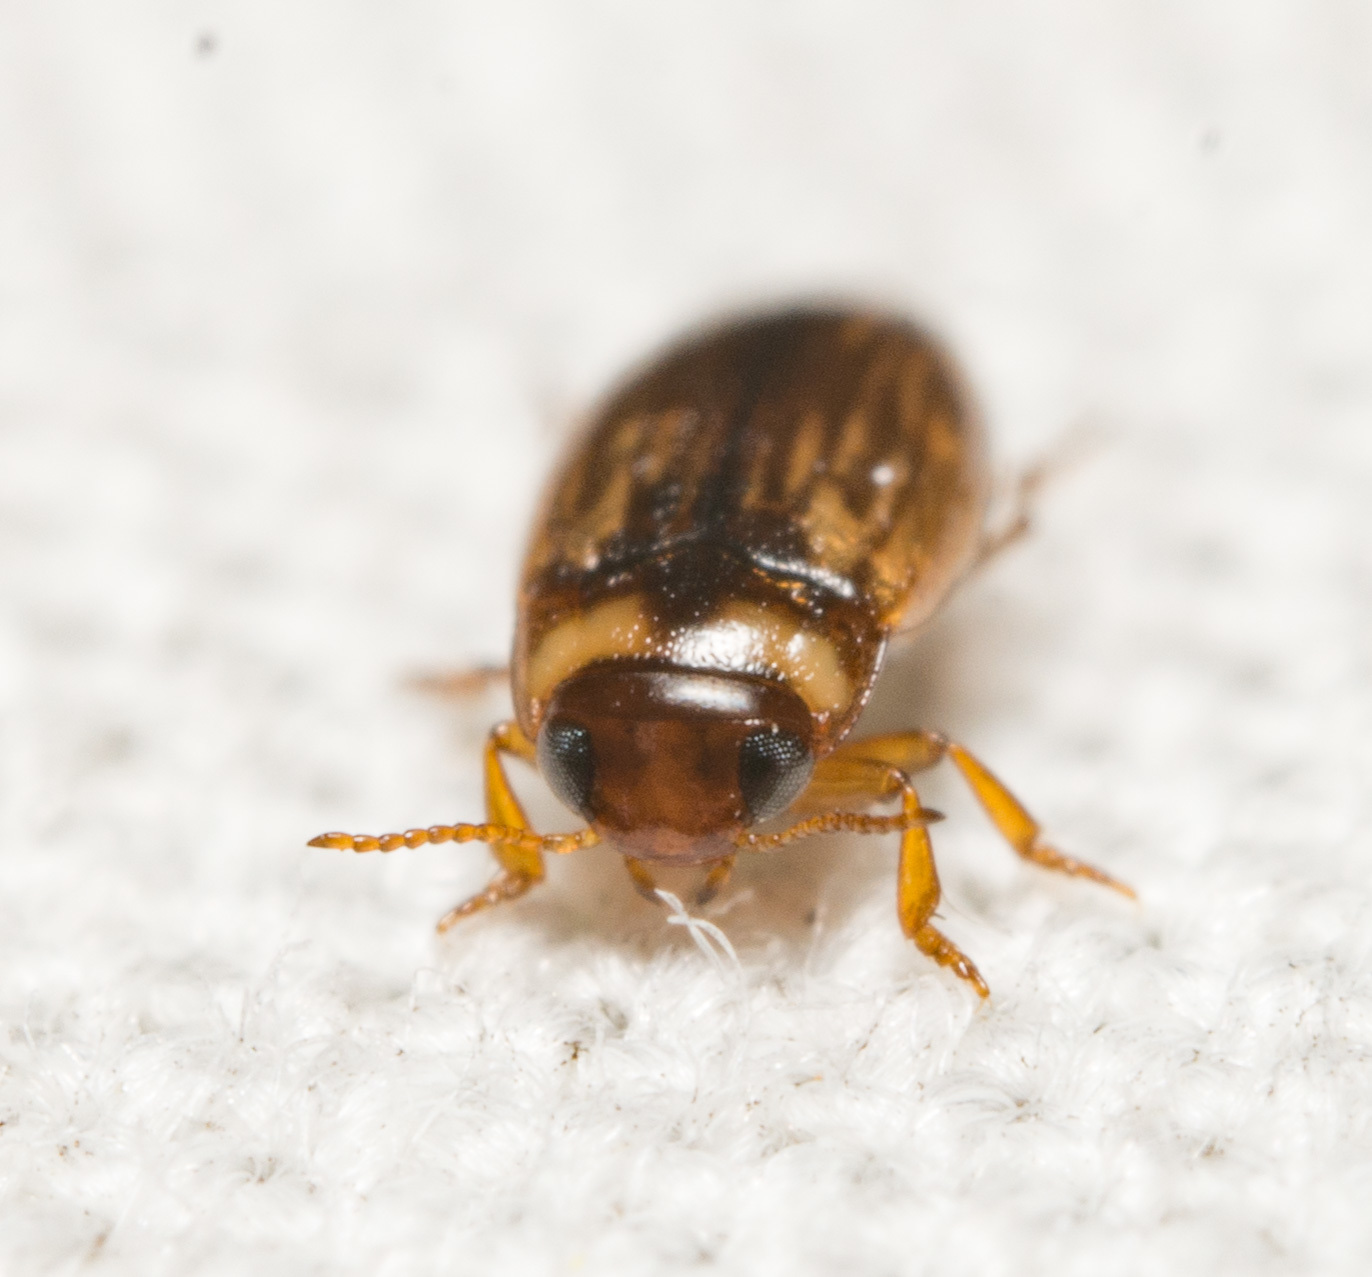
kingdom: Animalia
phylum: Arthropoda
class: Insecta
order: Coleoptera
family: Dytiscidae
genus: Liodessus
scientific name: Liodessus obscurellus
